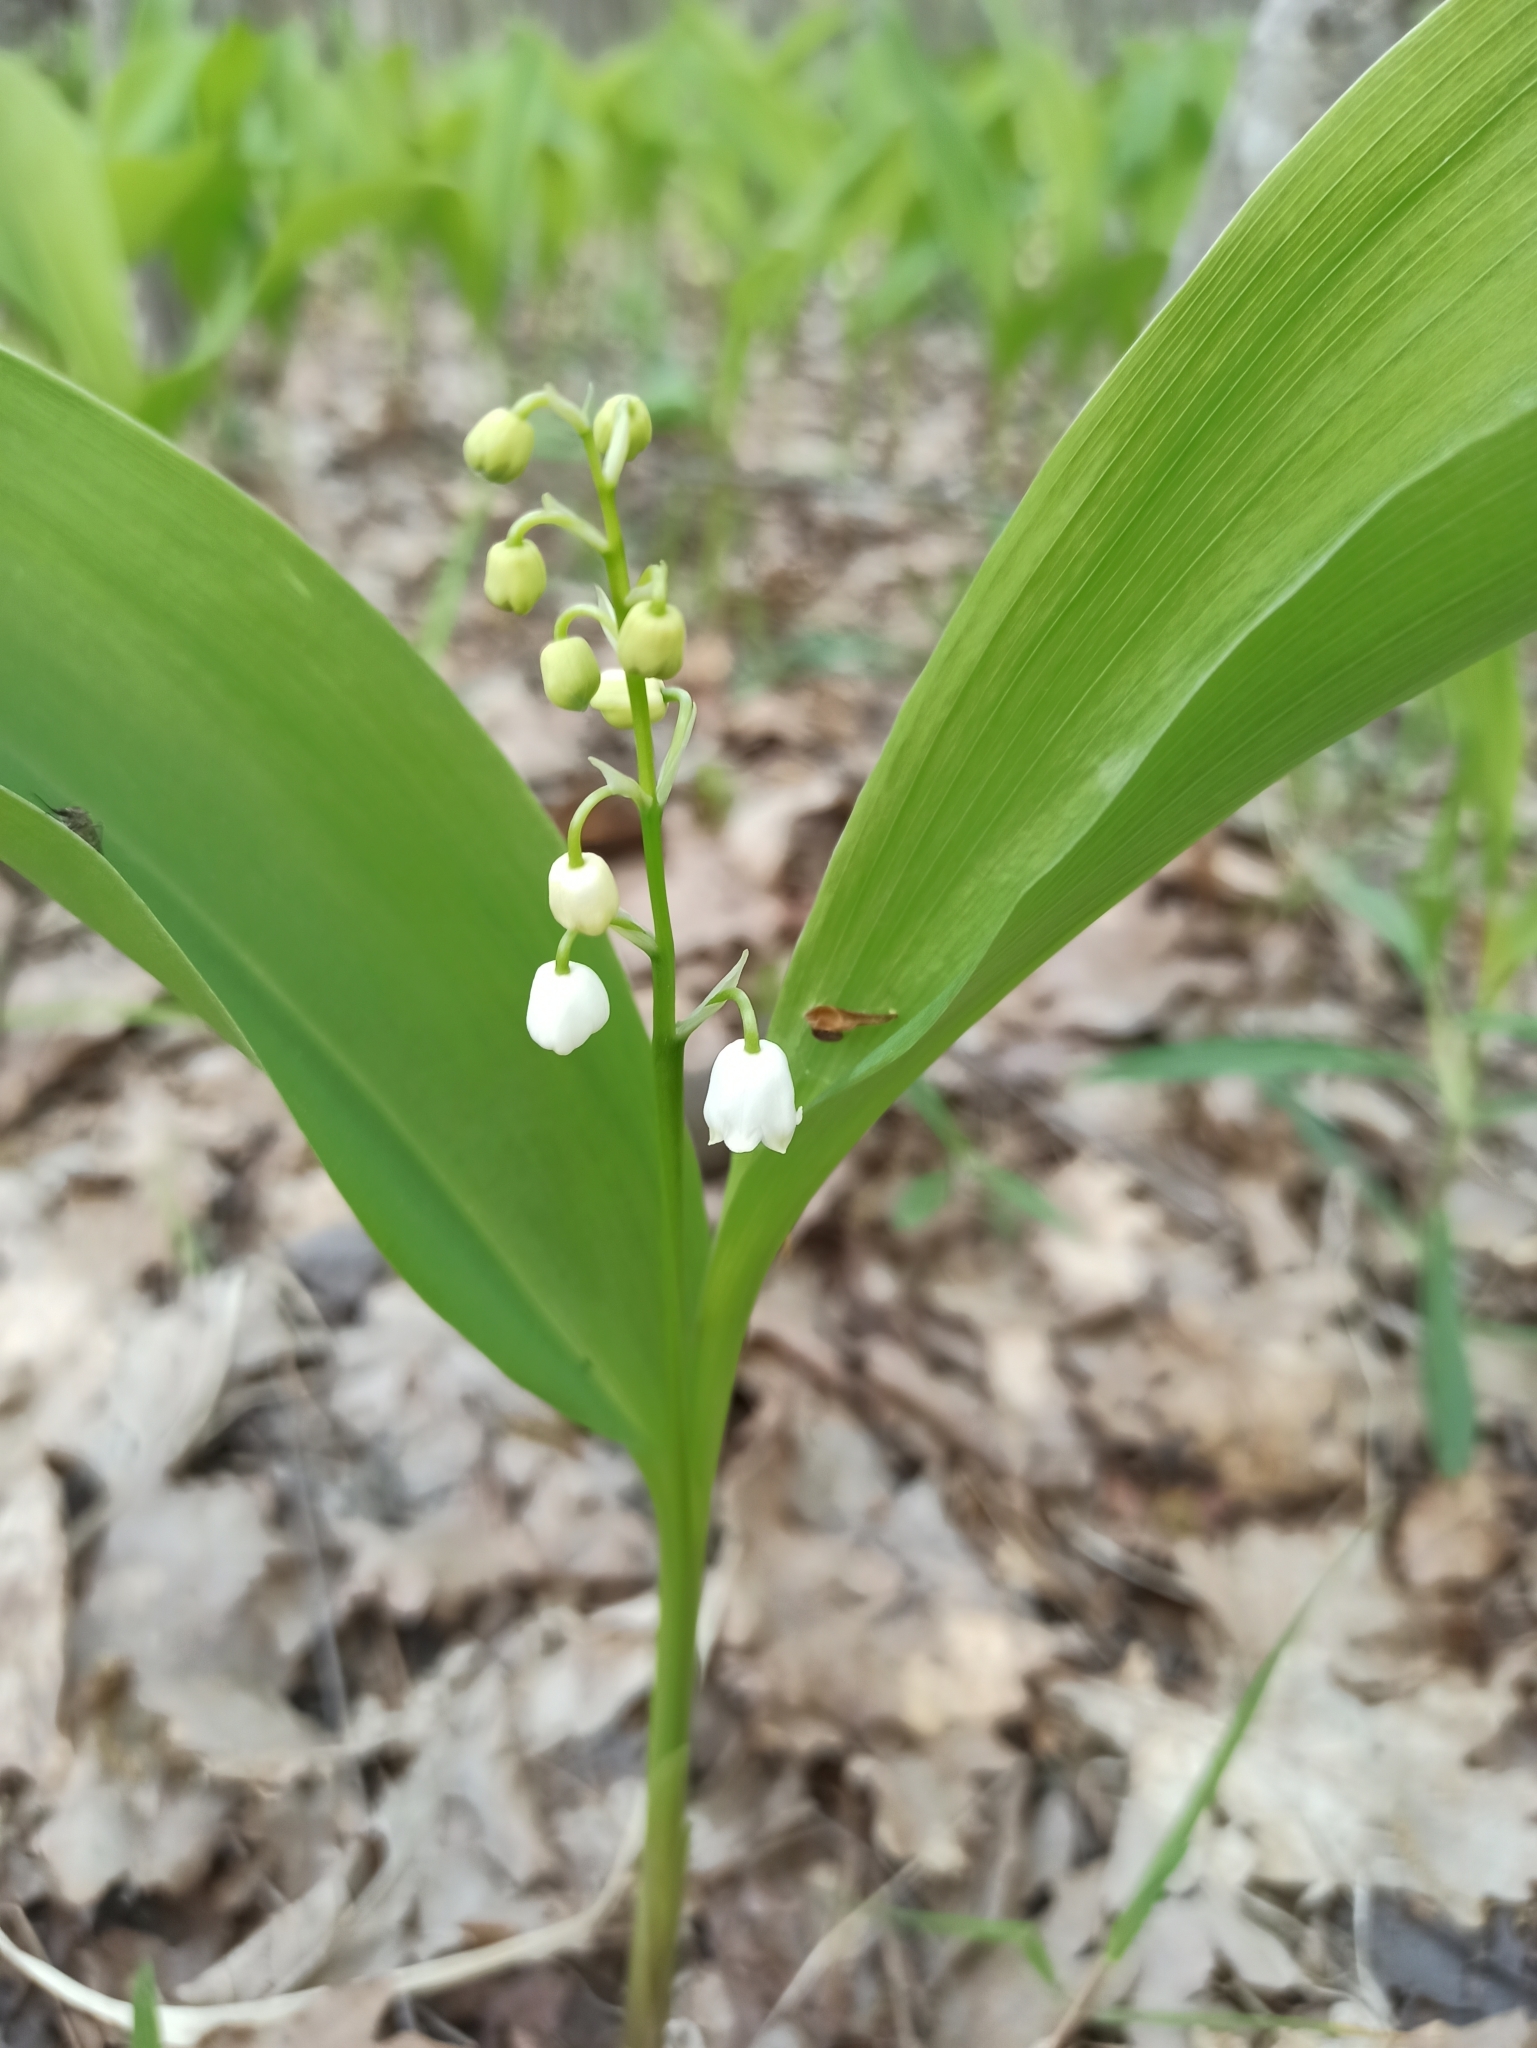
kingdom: Plantae
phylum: Tracheophyta
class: Liliopsida
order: Asparagales
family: Asparagaceae
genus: Convallaria
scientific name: Convallaria majalis
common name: Lily-of-the-valley
